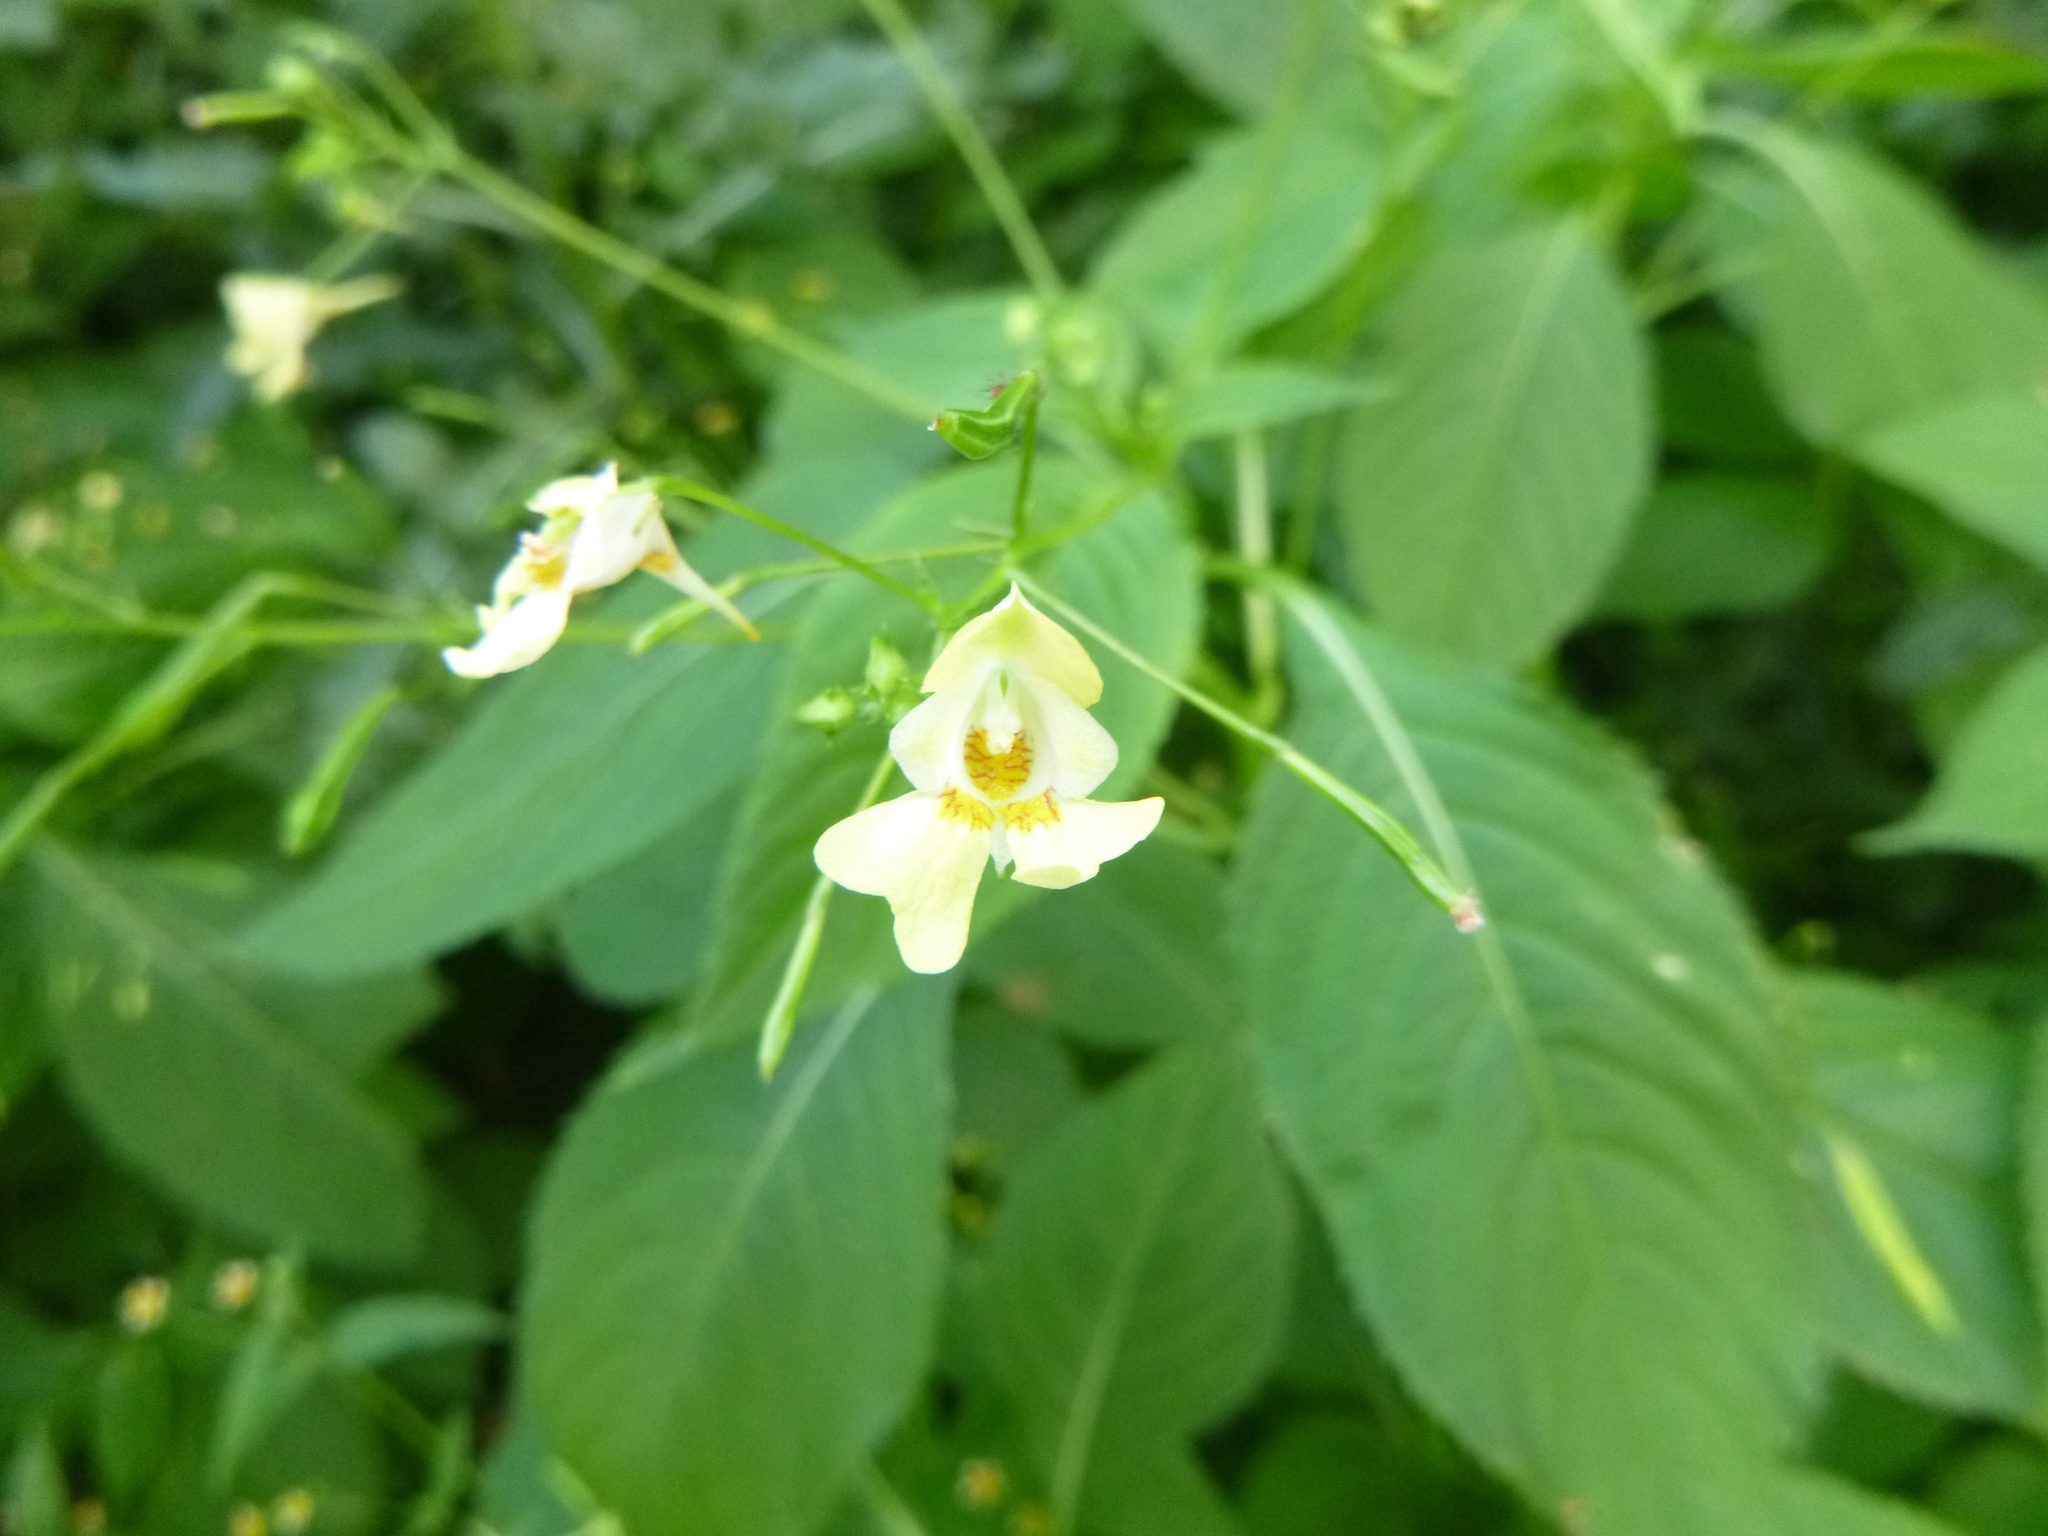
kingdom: Plantae
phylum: Tracheophyta
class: Magnoliopsida
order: Ericales
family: Balsaminaceae
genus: Impatiens
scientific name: Impatiens parviflora
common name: Small balsam
